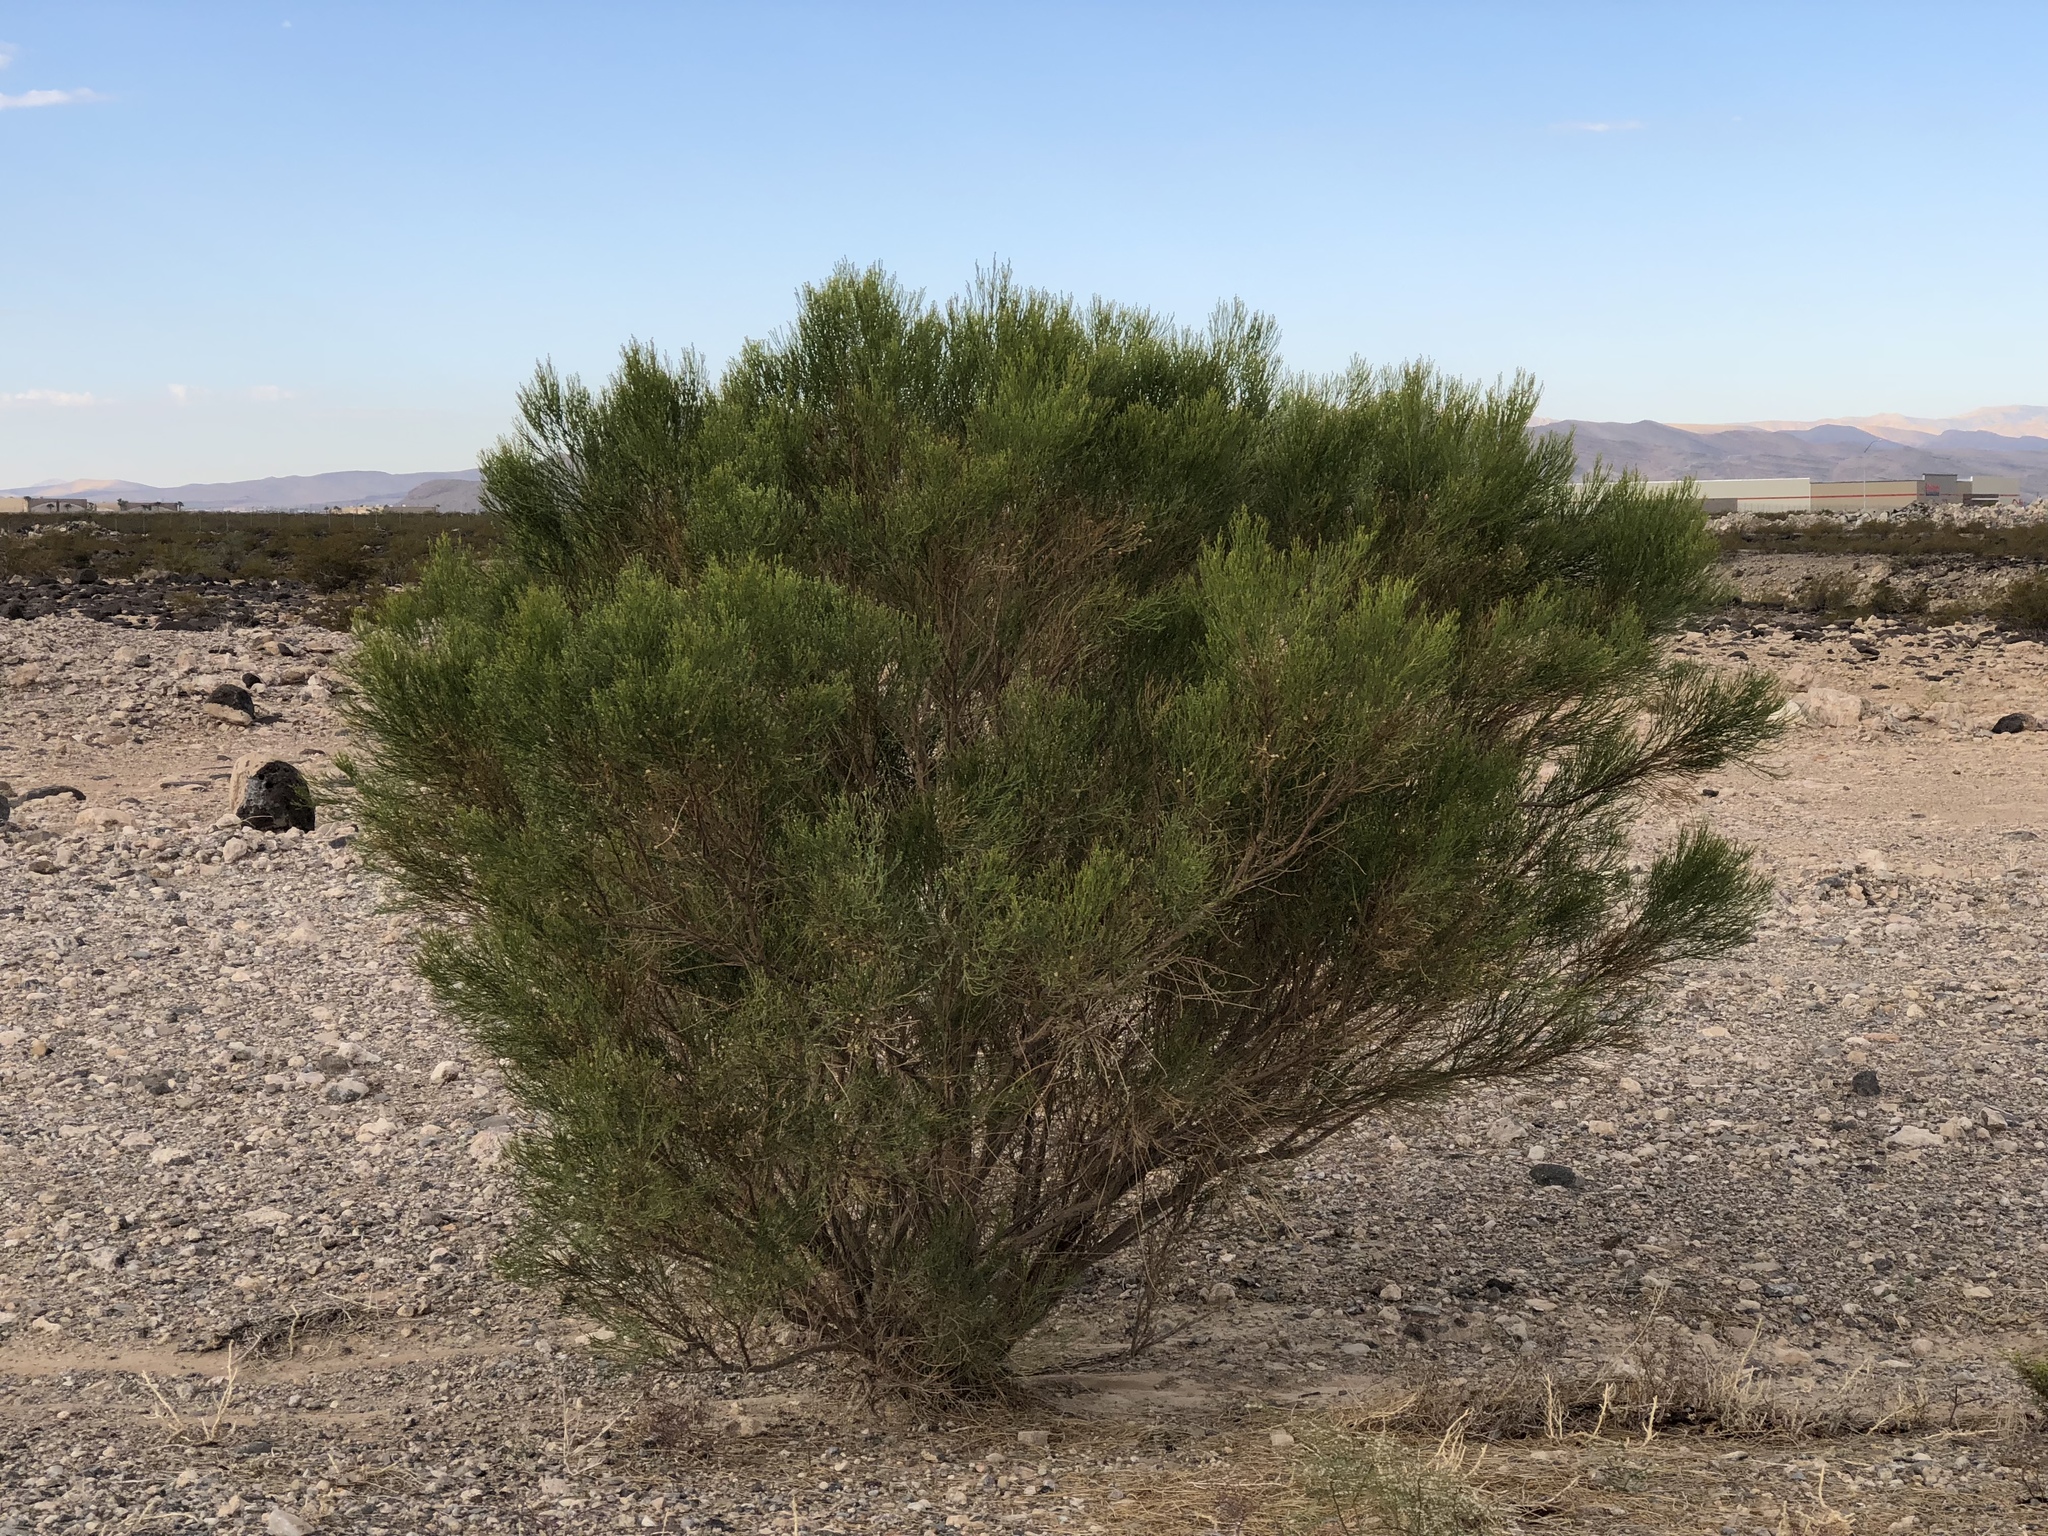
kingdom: Plantae
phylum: Tracheophyta
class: Magnoliopsida
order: Asterales
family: Asteraceae
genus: Baccharis
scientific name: Baccharis sarothroides
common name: Desert-broom
